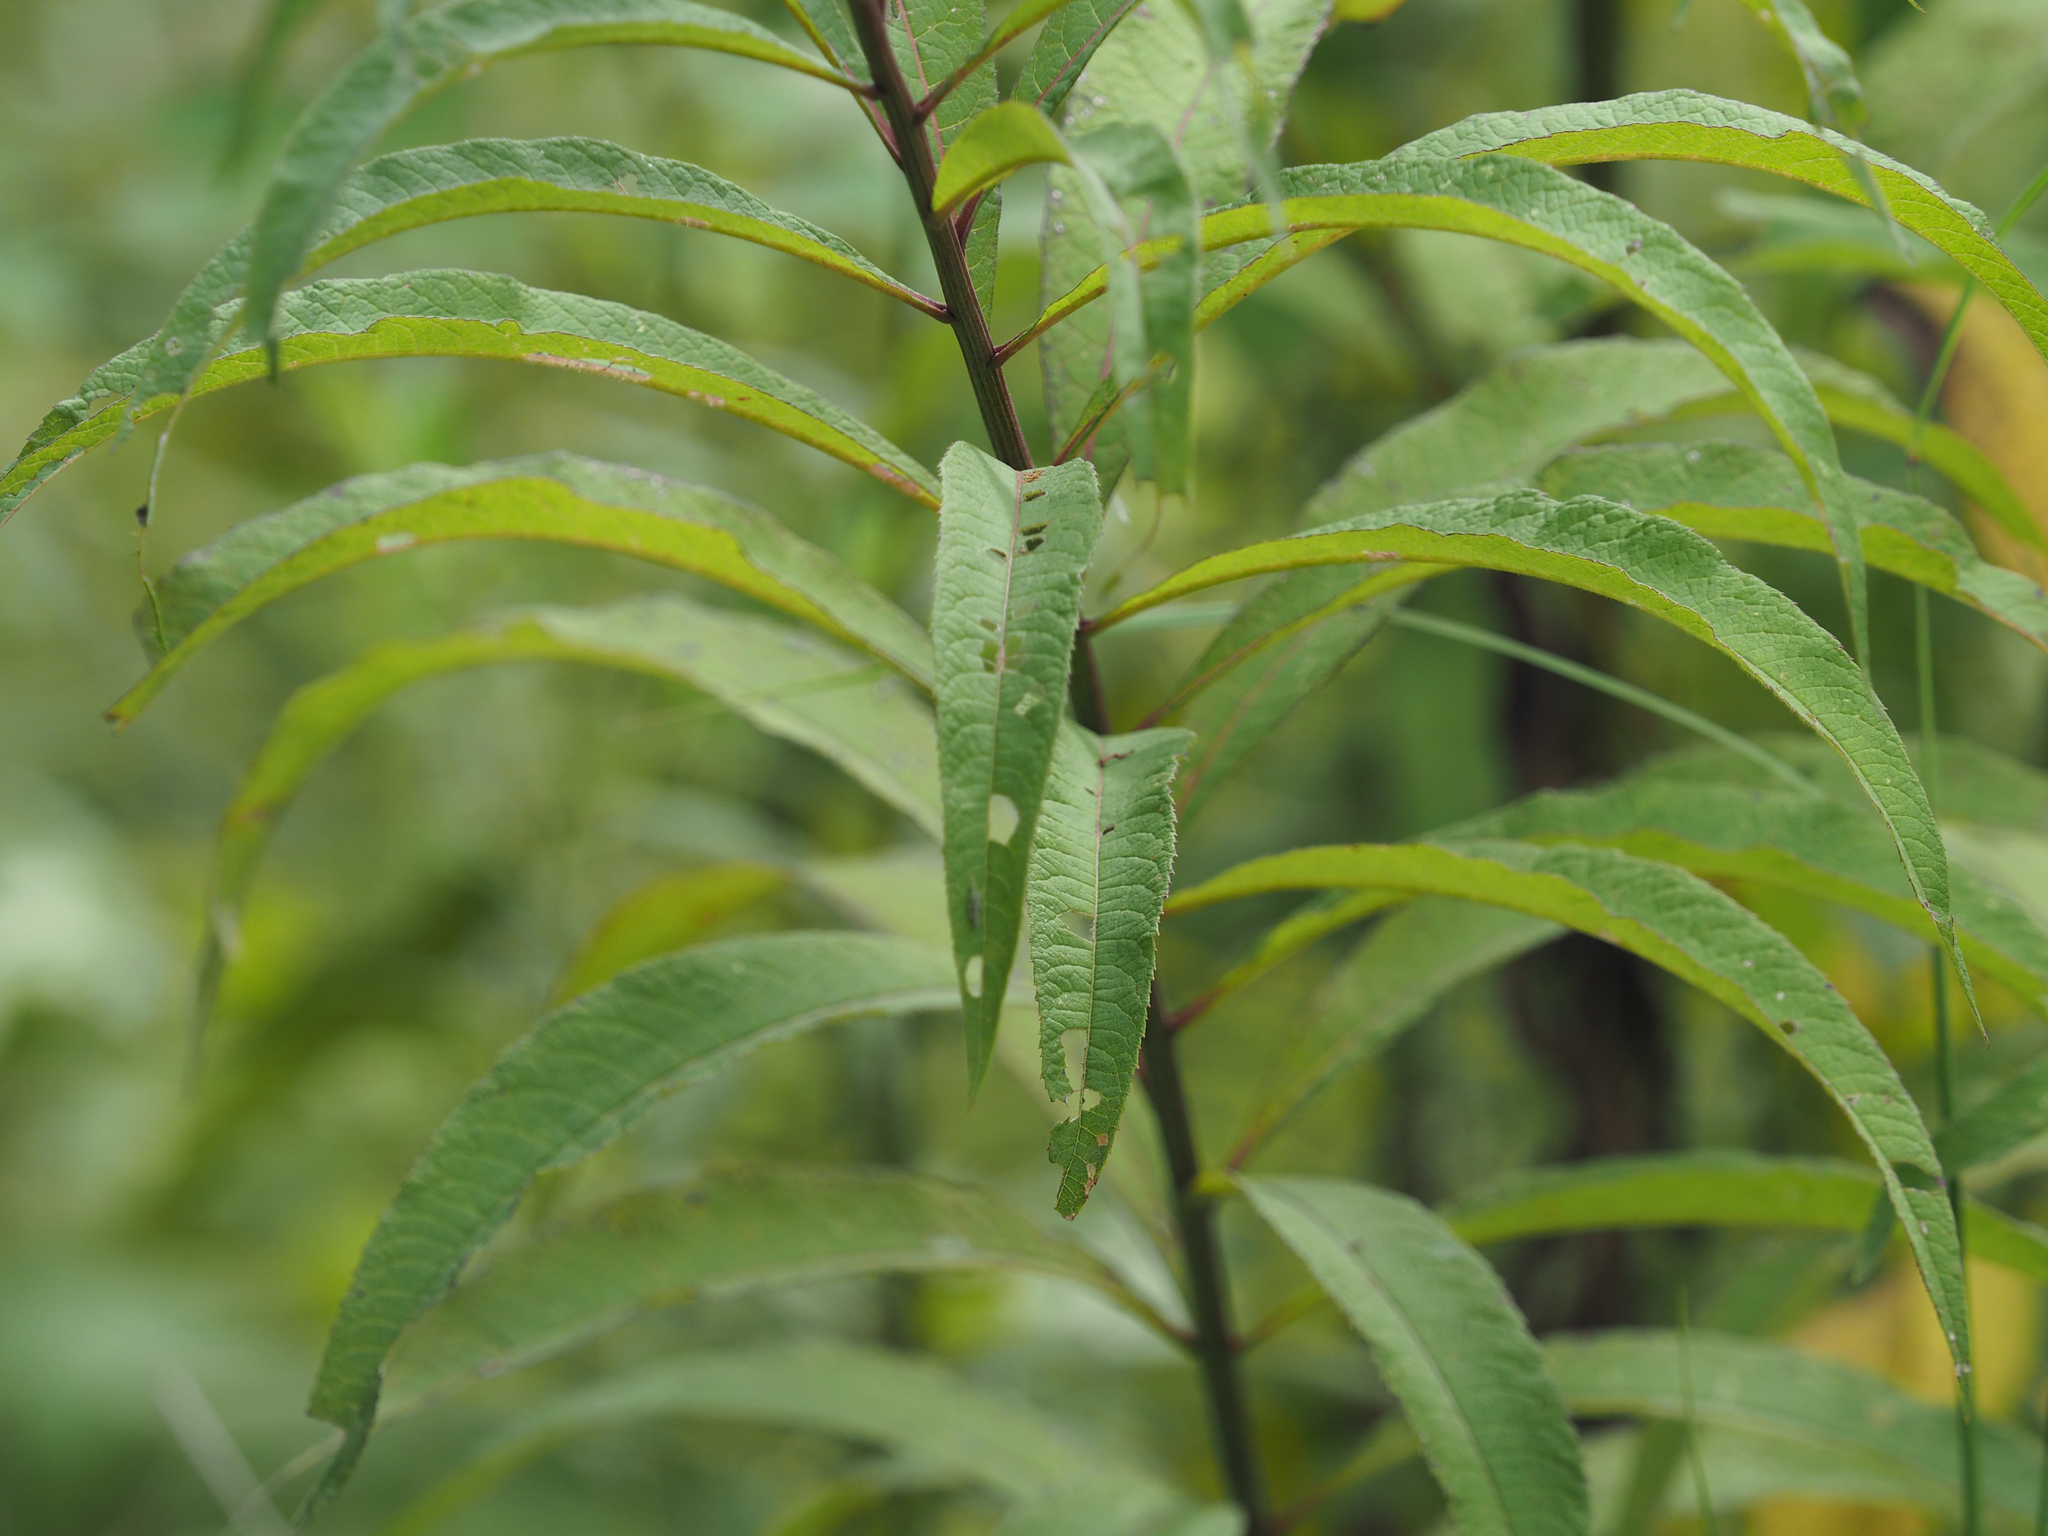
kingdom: Plantae
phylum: Tracheophyta
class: Magnoliopsida
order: Asterales
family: Asteraceae
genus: Vernonia
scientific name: Vernonia noveboracensis
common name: New york ironweed
